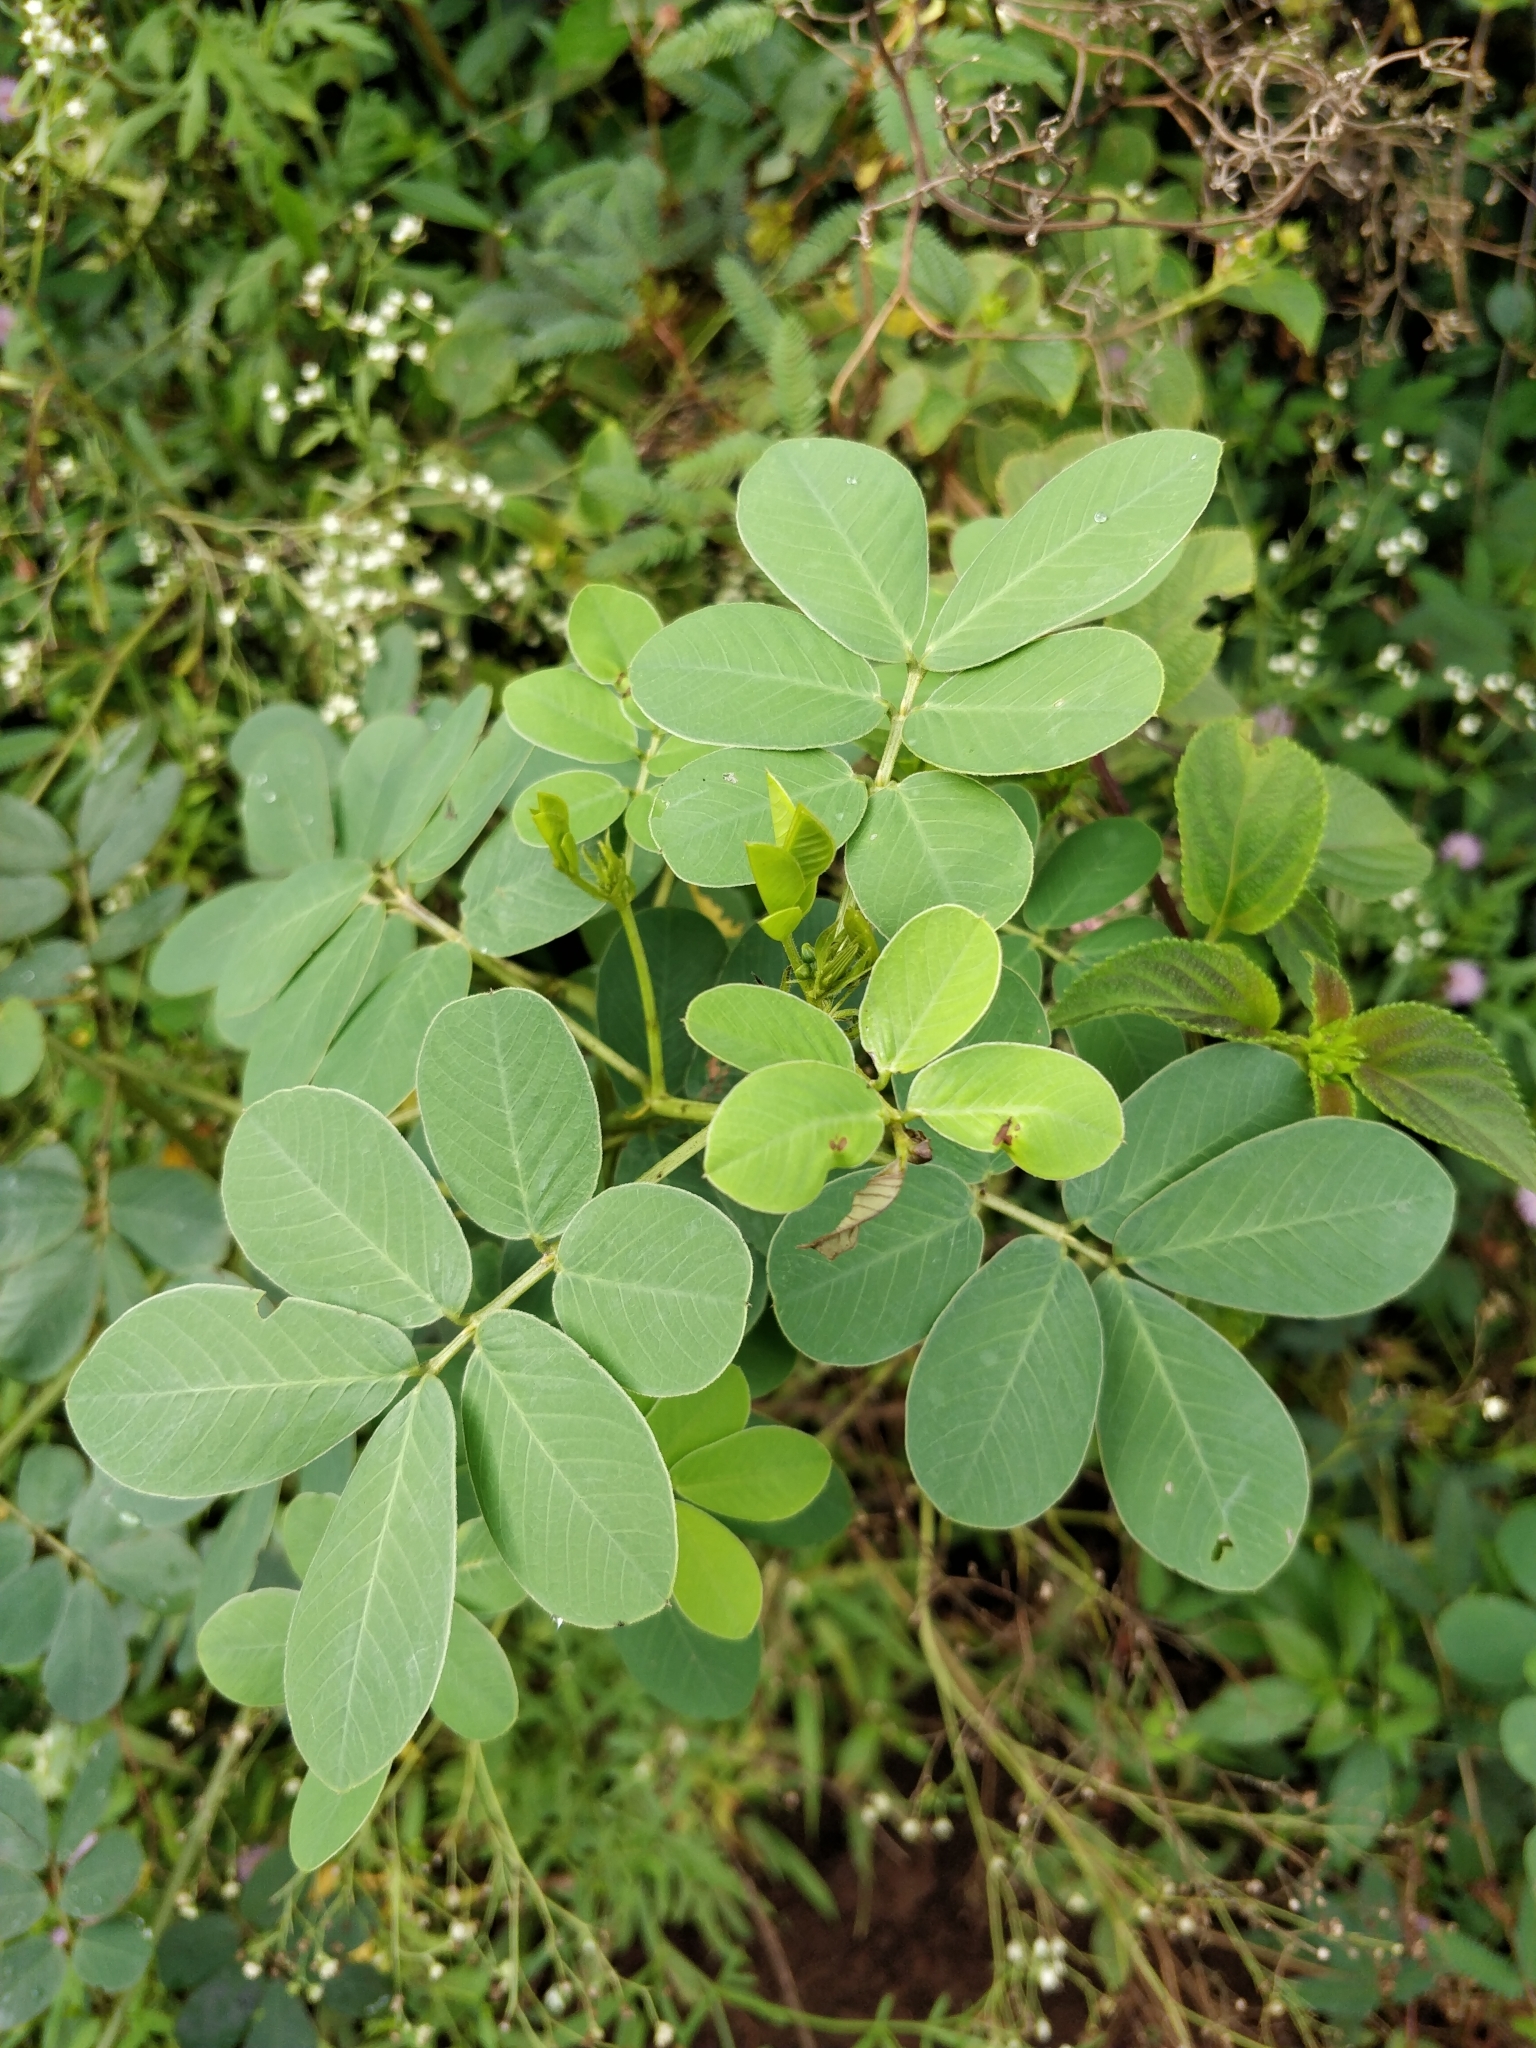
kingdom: Plantae
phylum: Tracheophyta
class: Magnoliopsida
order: Fabales
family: Fabaceae
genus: Senna
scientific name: Senna tora
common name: Sickle senna
